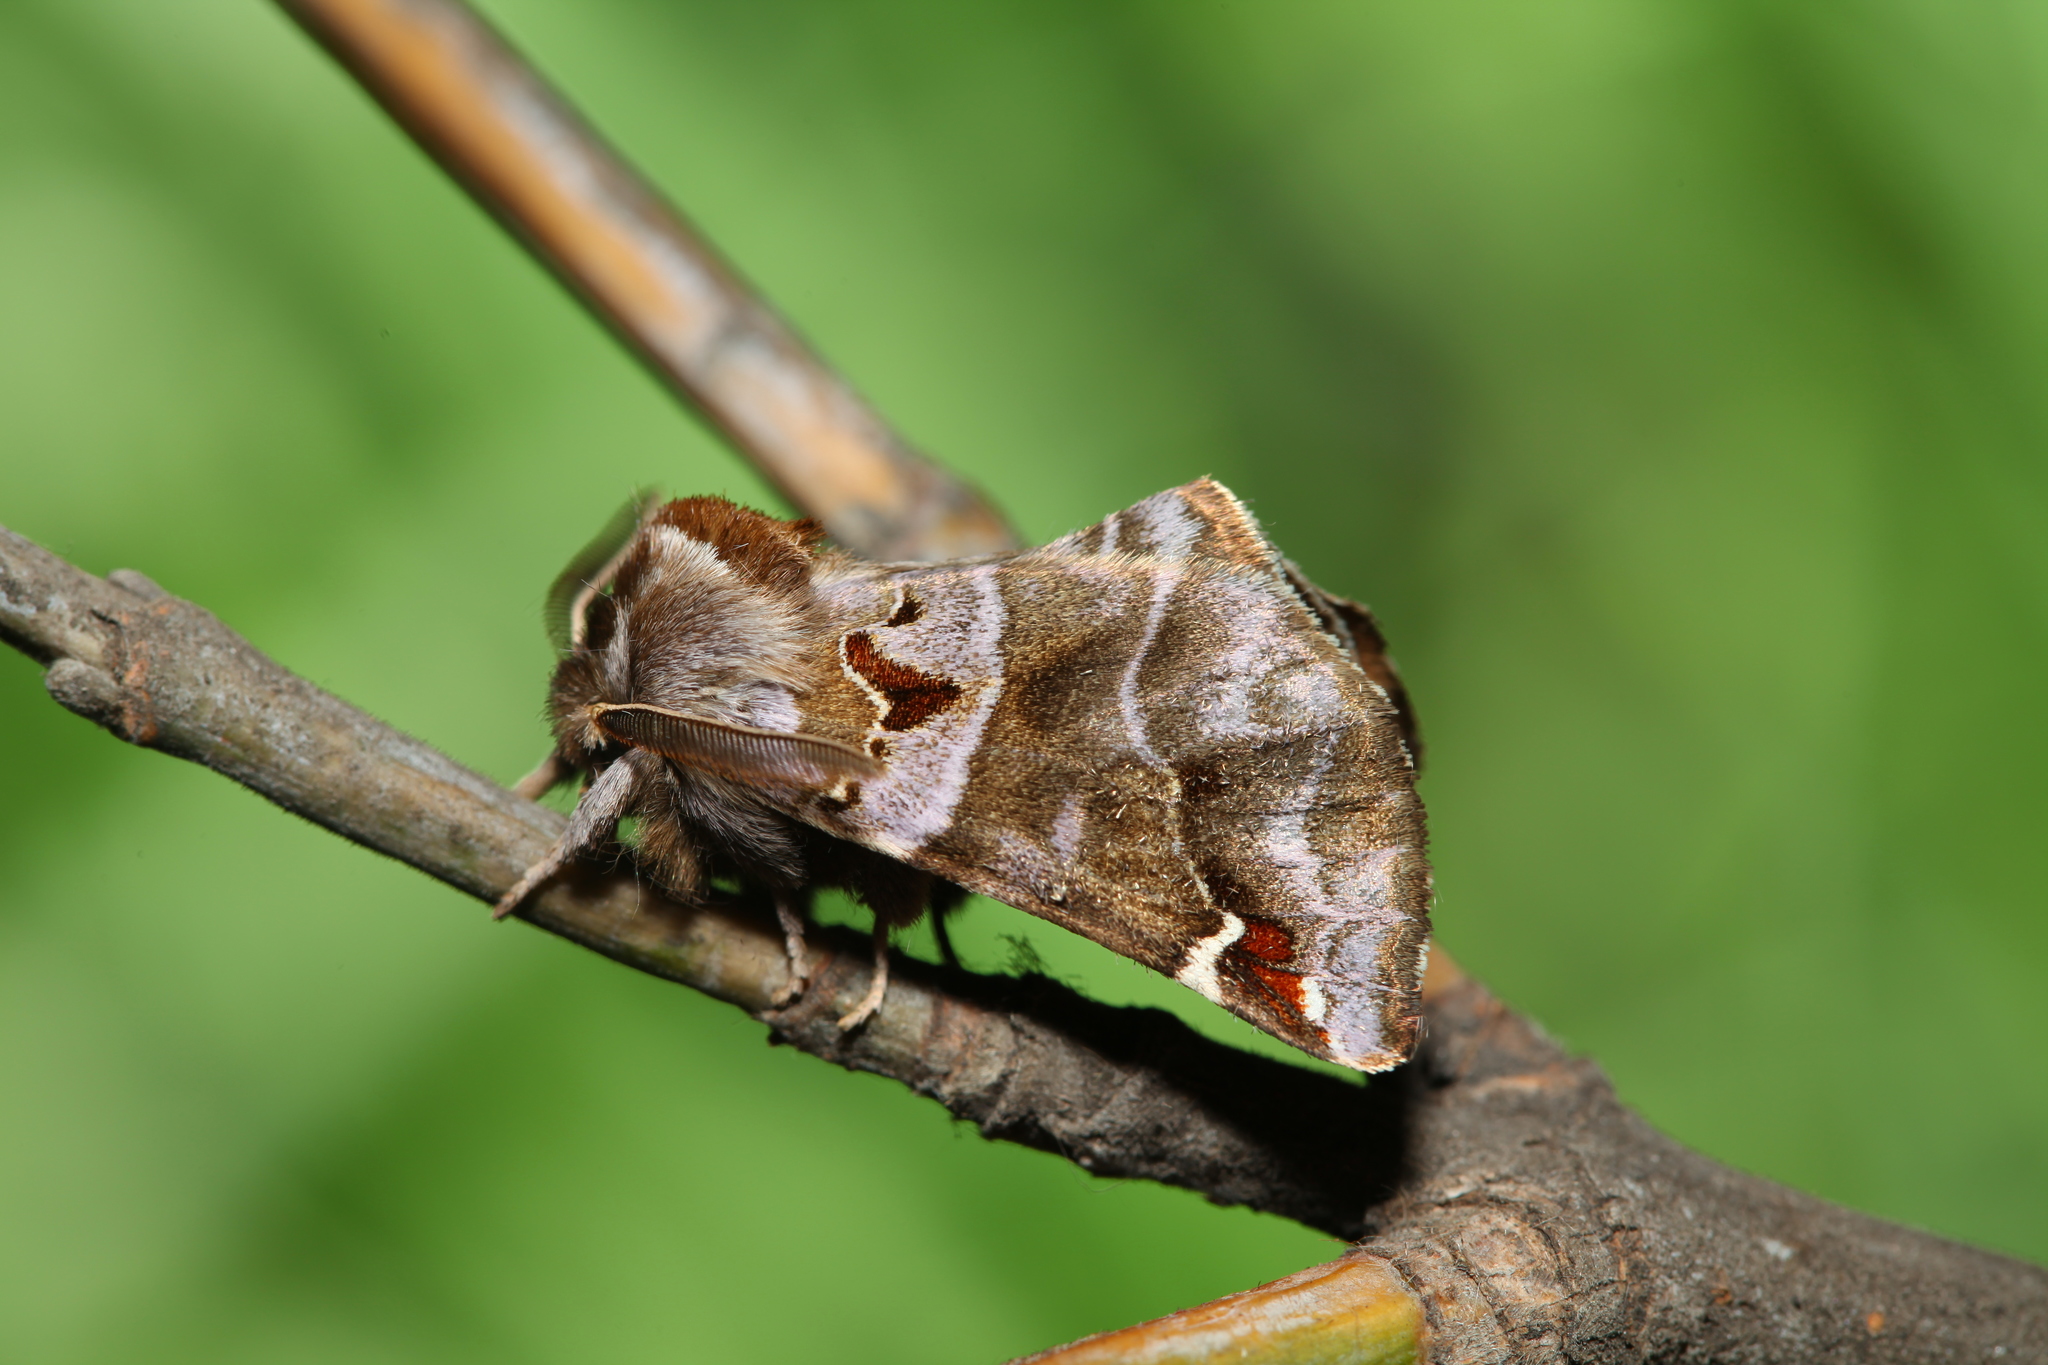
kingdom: Animalia
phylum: Arthropoda
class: Insecta
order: Lepidoptera
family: Notodontidae
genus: Pygaera
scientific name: Pygaera timon
